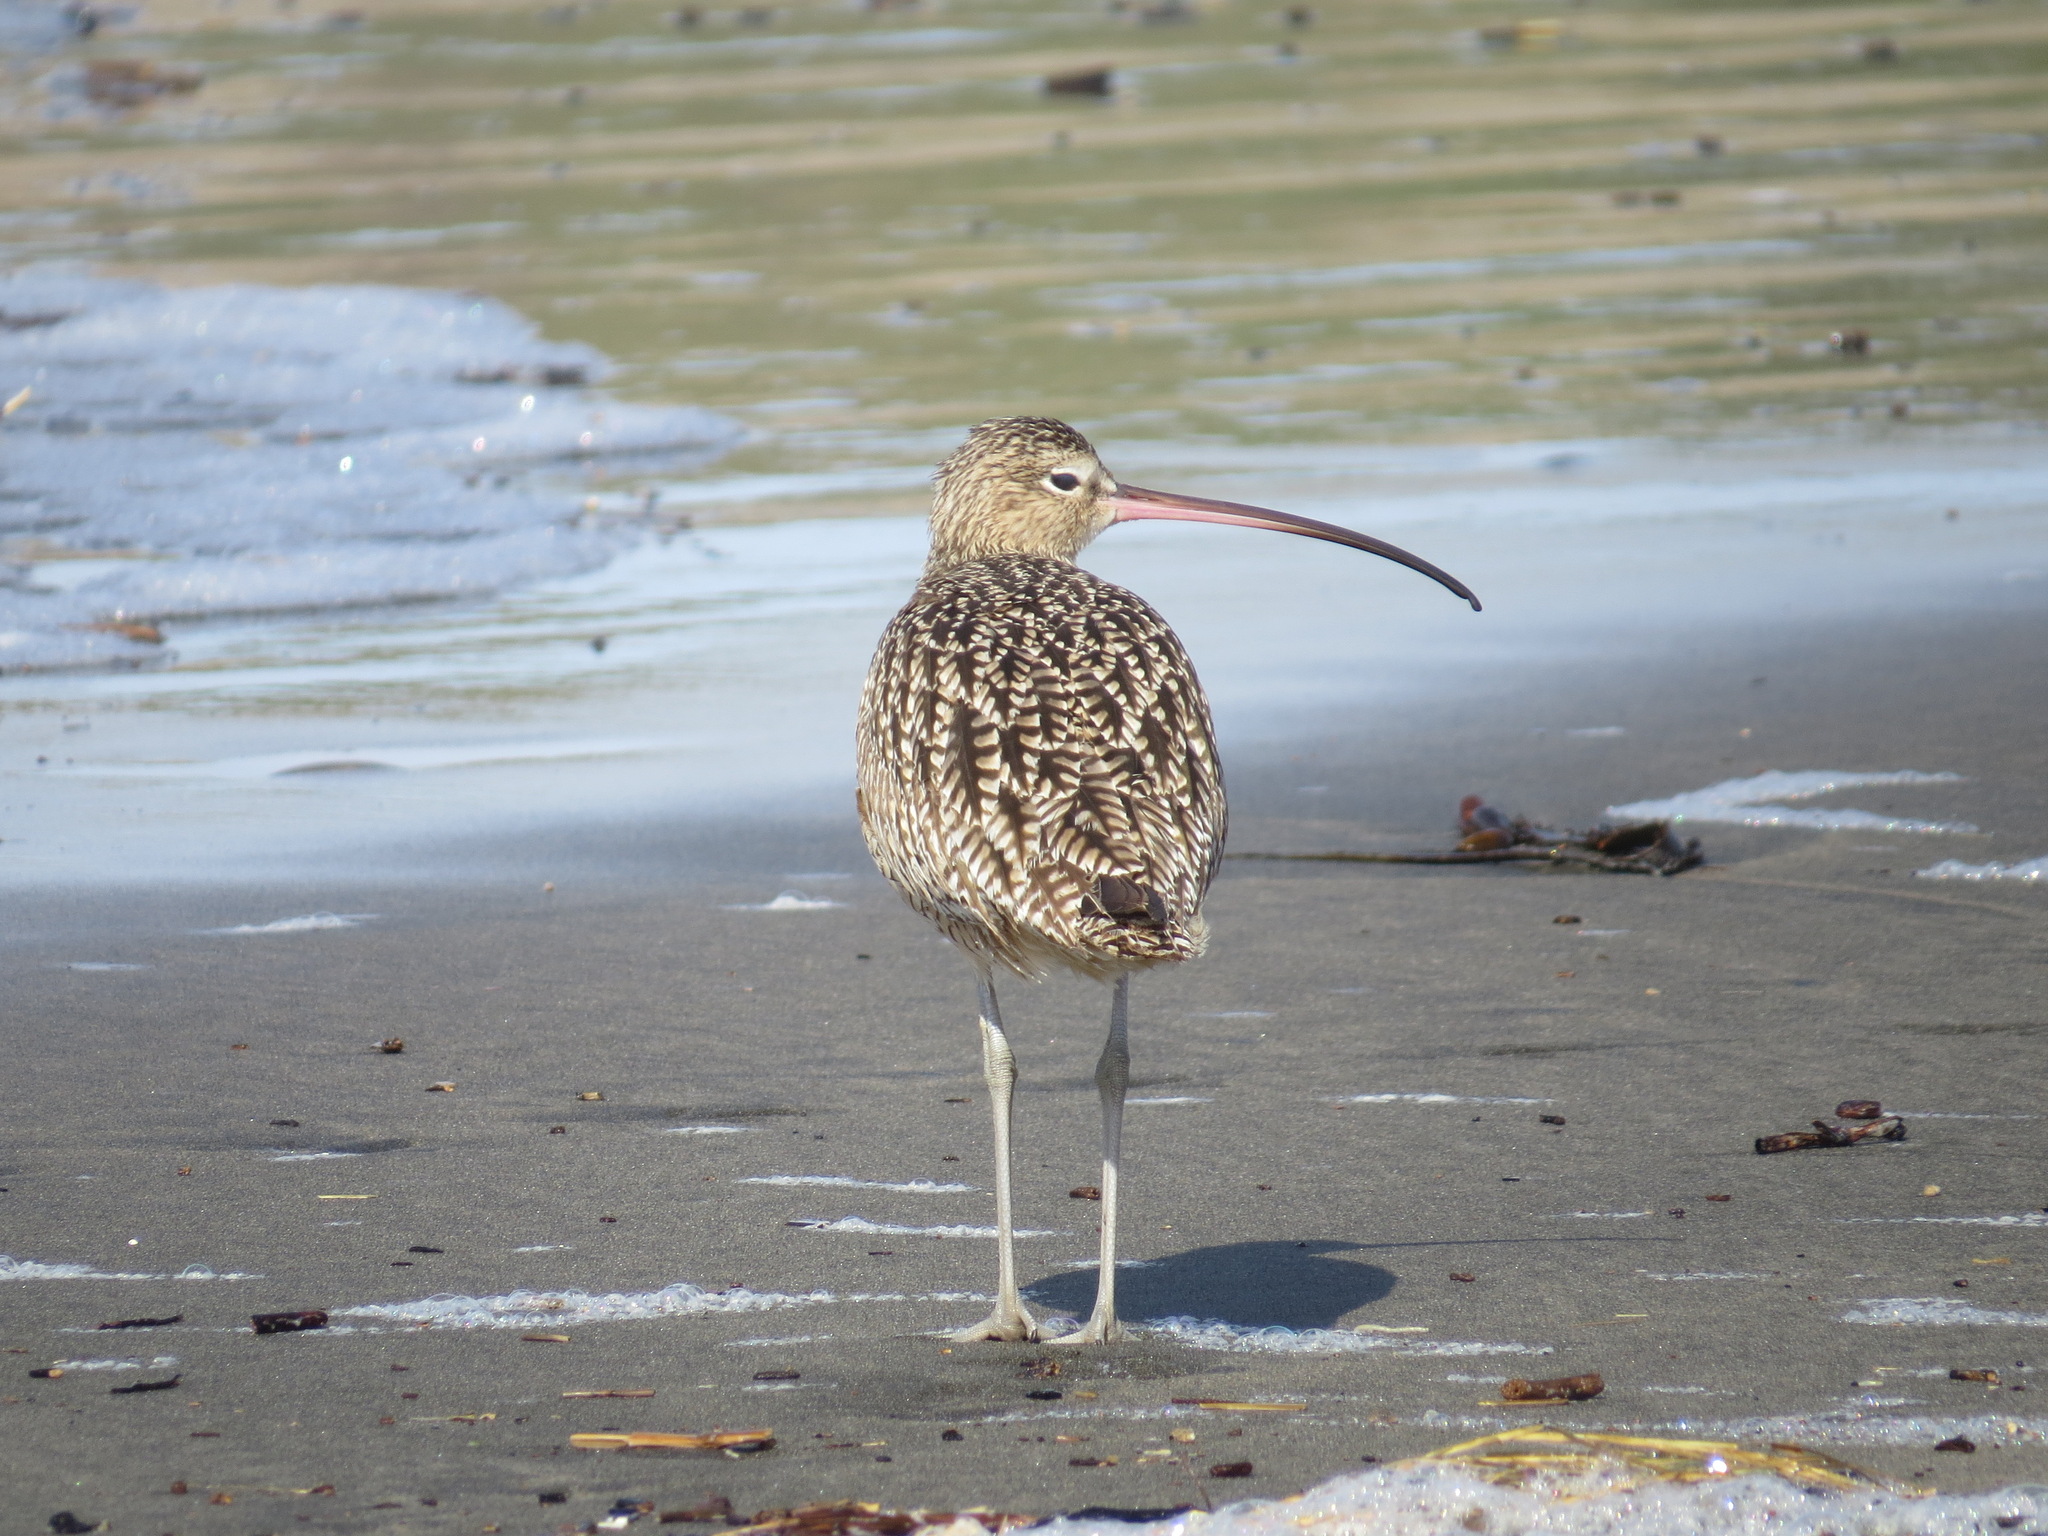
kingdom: Animalia
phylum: Chordata
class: Aves
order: Charadriiformes
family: Scolopacidae
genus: Numenius
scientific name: Numenius americanus
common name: Long-billed curlew
